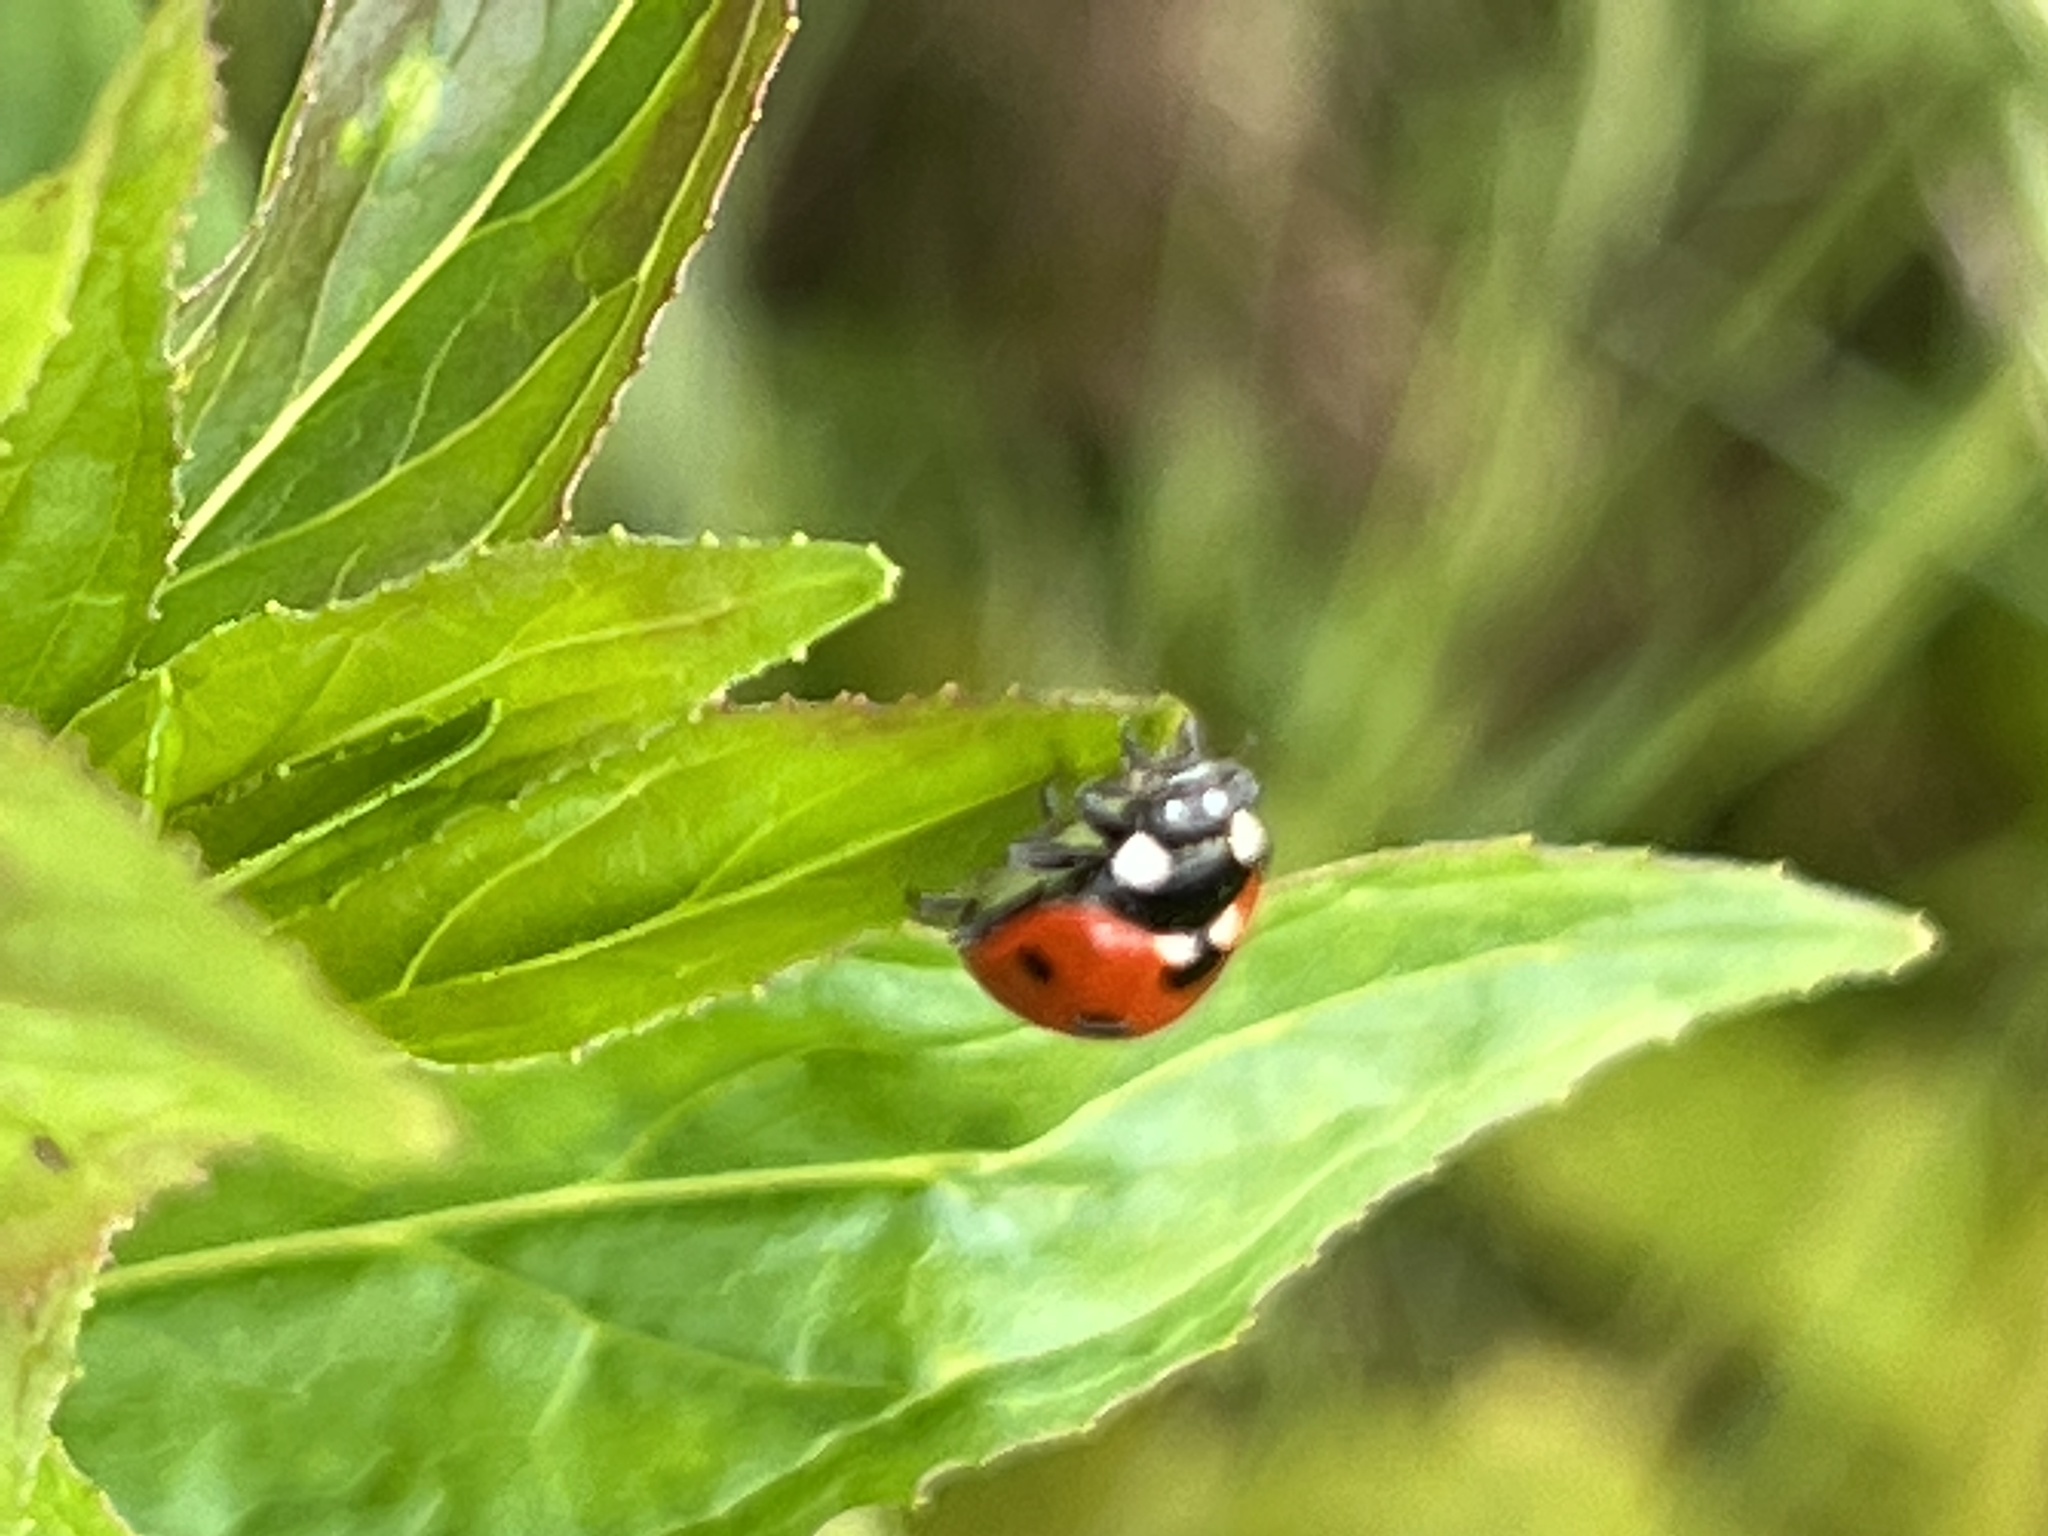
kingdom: Animalia
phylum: Arthropoda
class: Insecta
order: Coleoptera
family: Coccinellidae
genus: Coccinella
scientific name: Coccinella septempunctata
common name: Sevenspotted lady beetle
